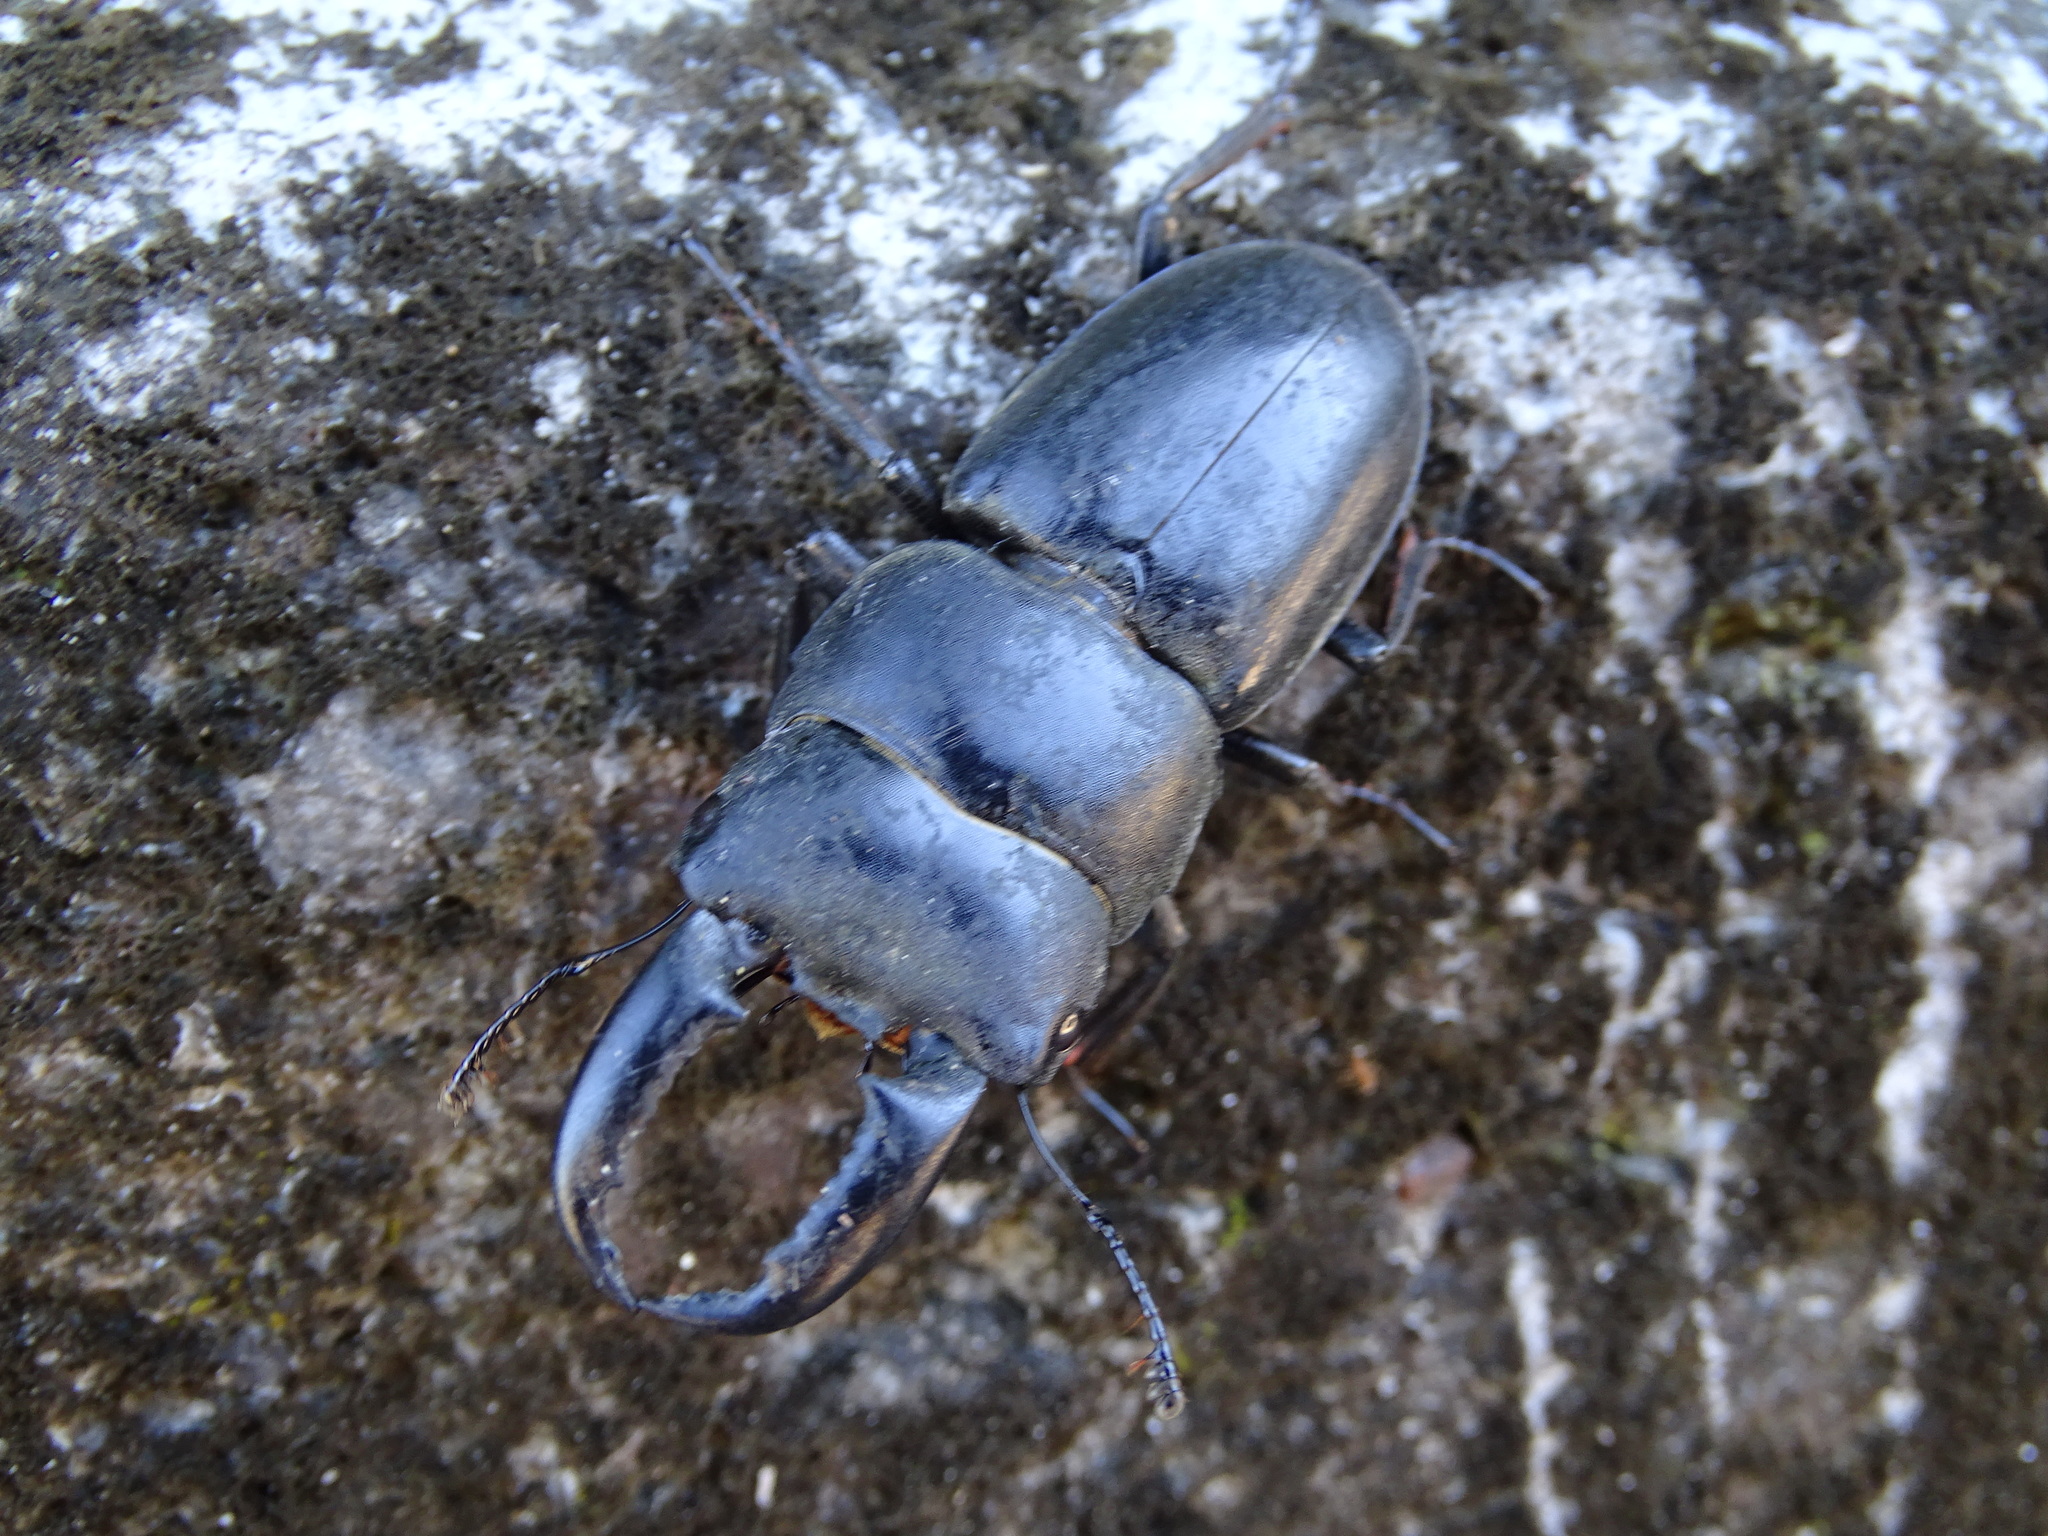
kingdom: Animalia
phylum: Arthropoda
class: Insecta
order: Coleoptera
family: Lucanidae
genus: Serrognathus
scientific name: Serrognathus titanus
